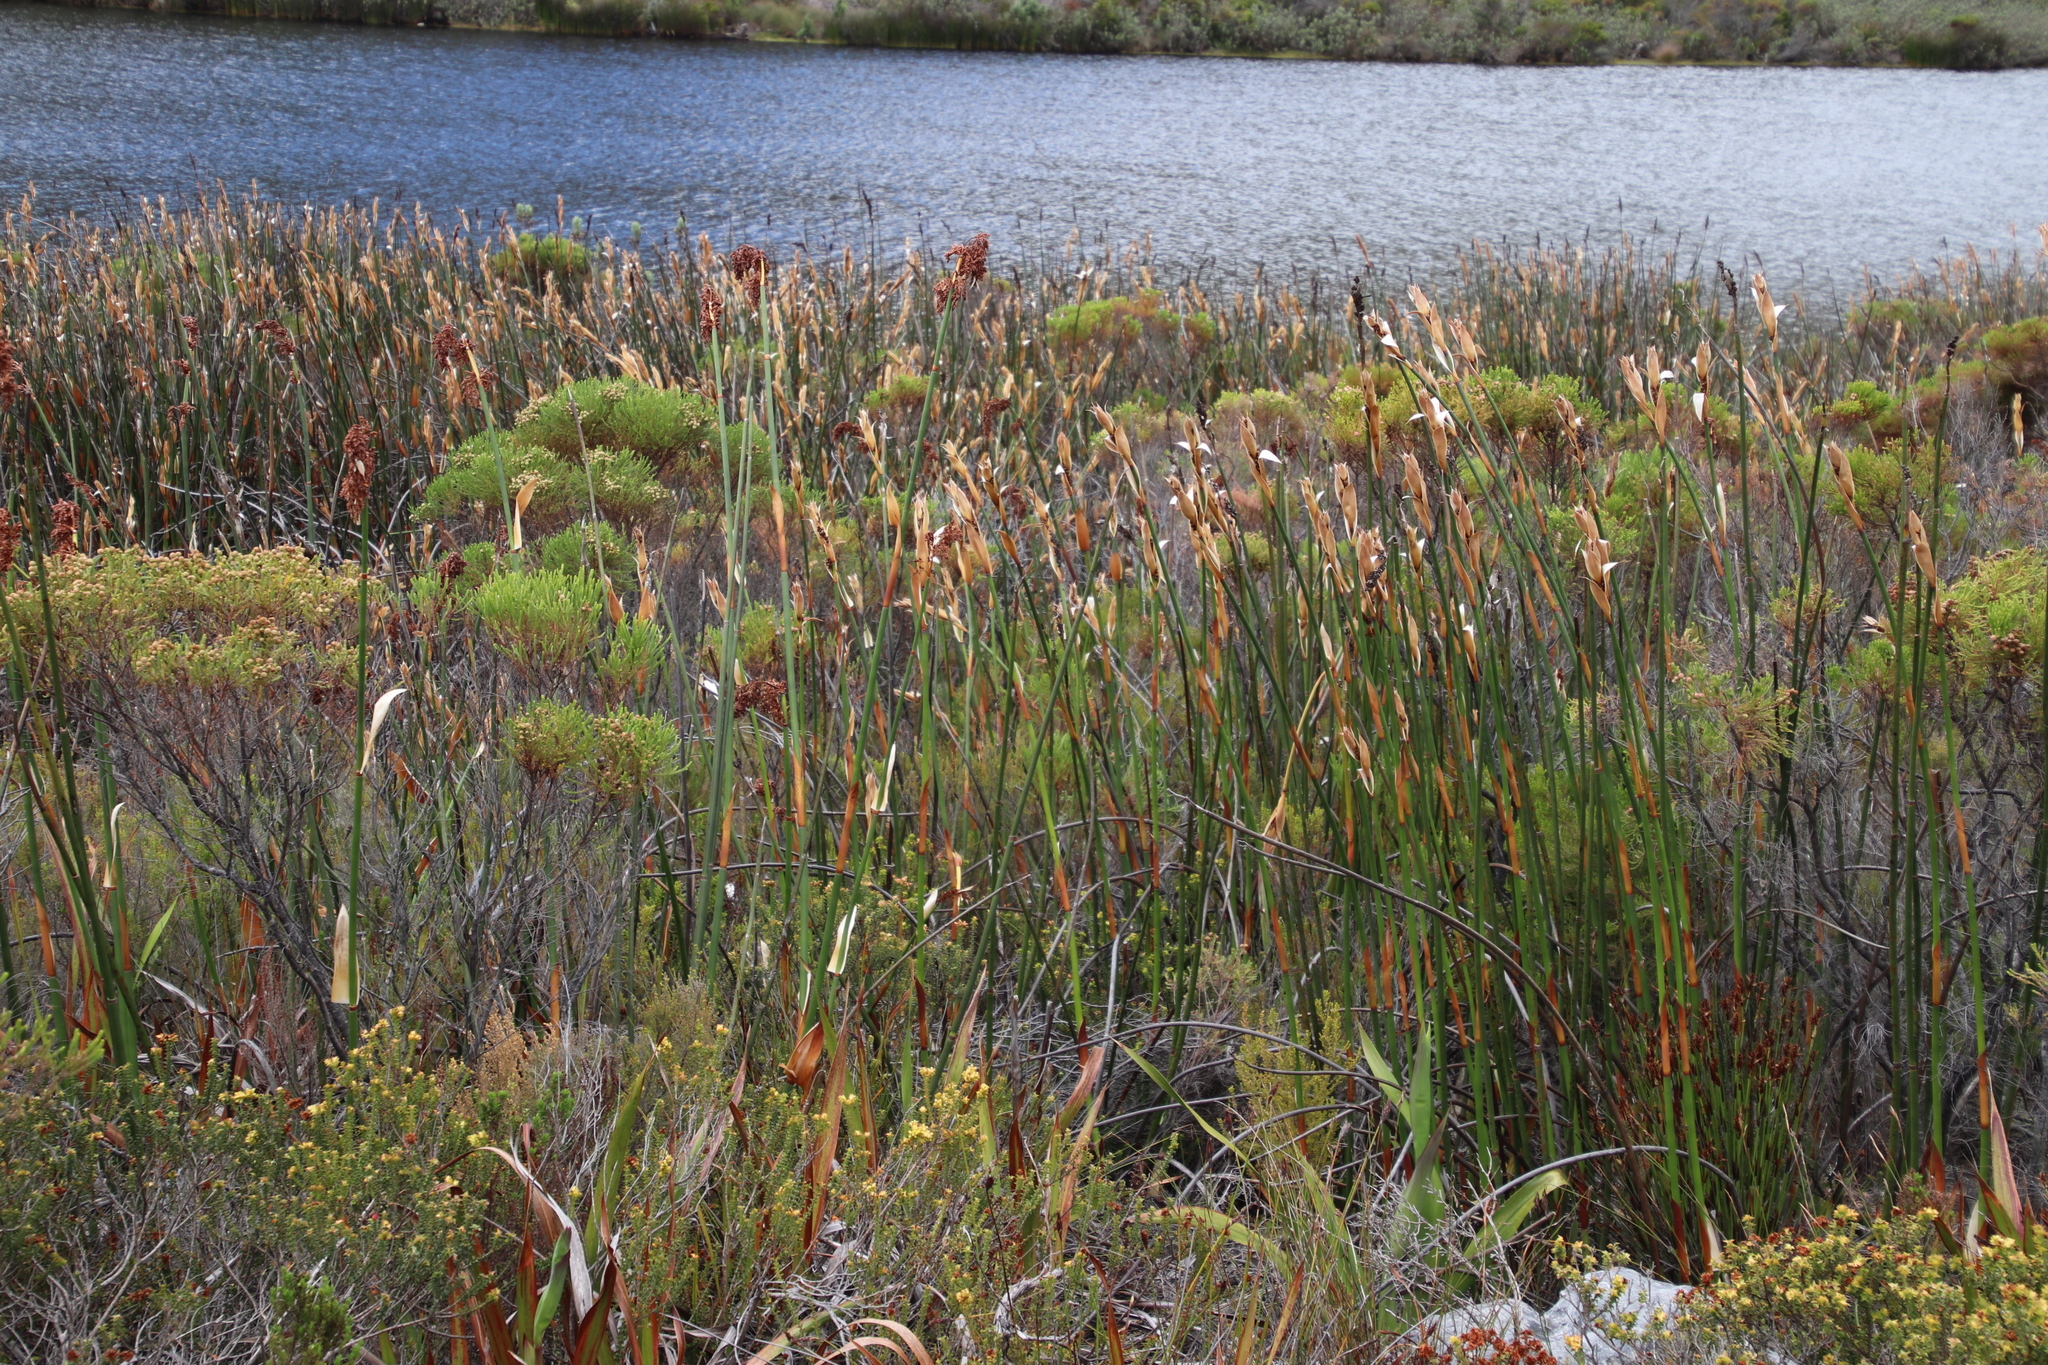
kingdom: Plantae
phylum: Tracheophyta
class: Liliopsida
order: Poales
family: Restionaceae
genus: Elegia
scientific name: Elegia mucronata
